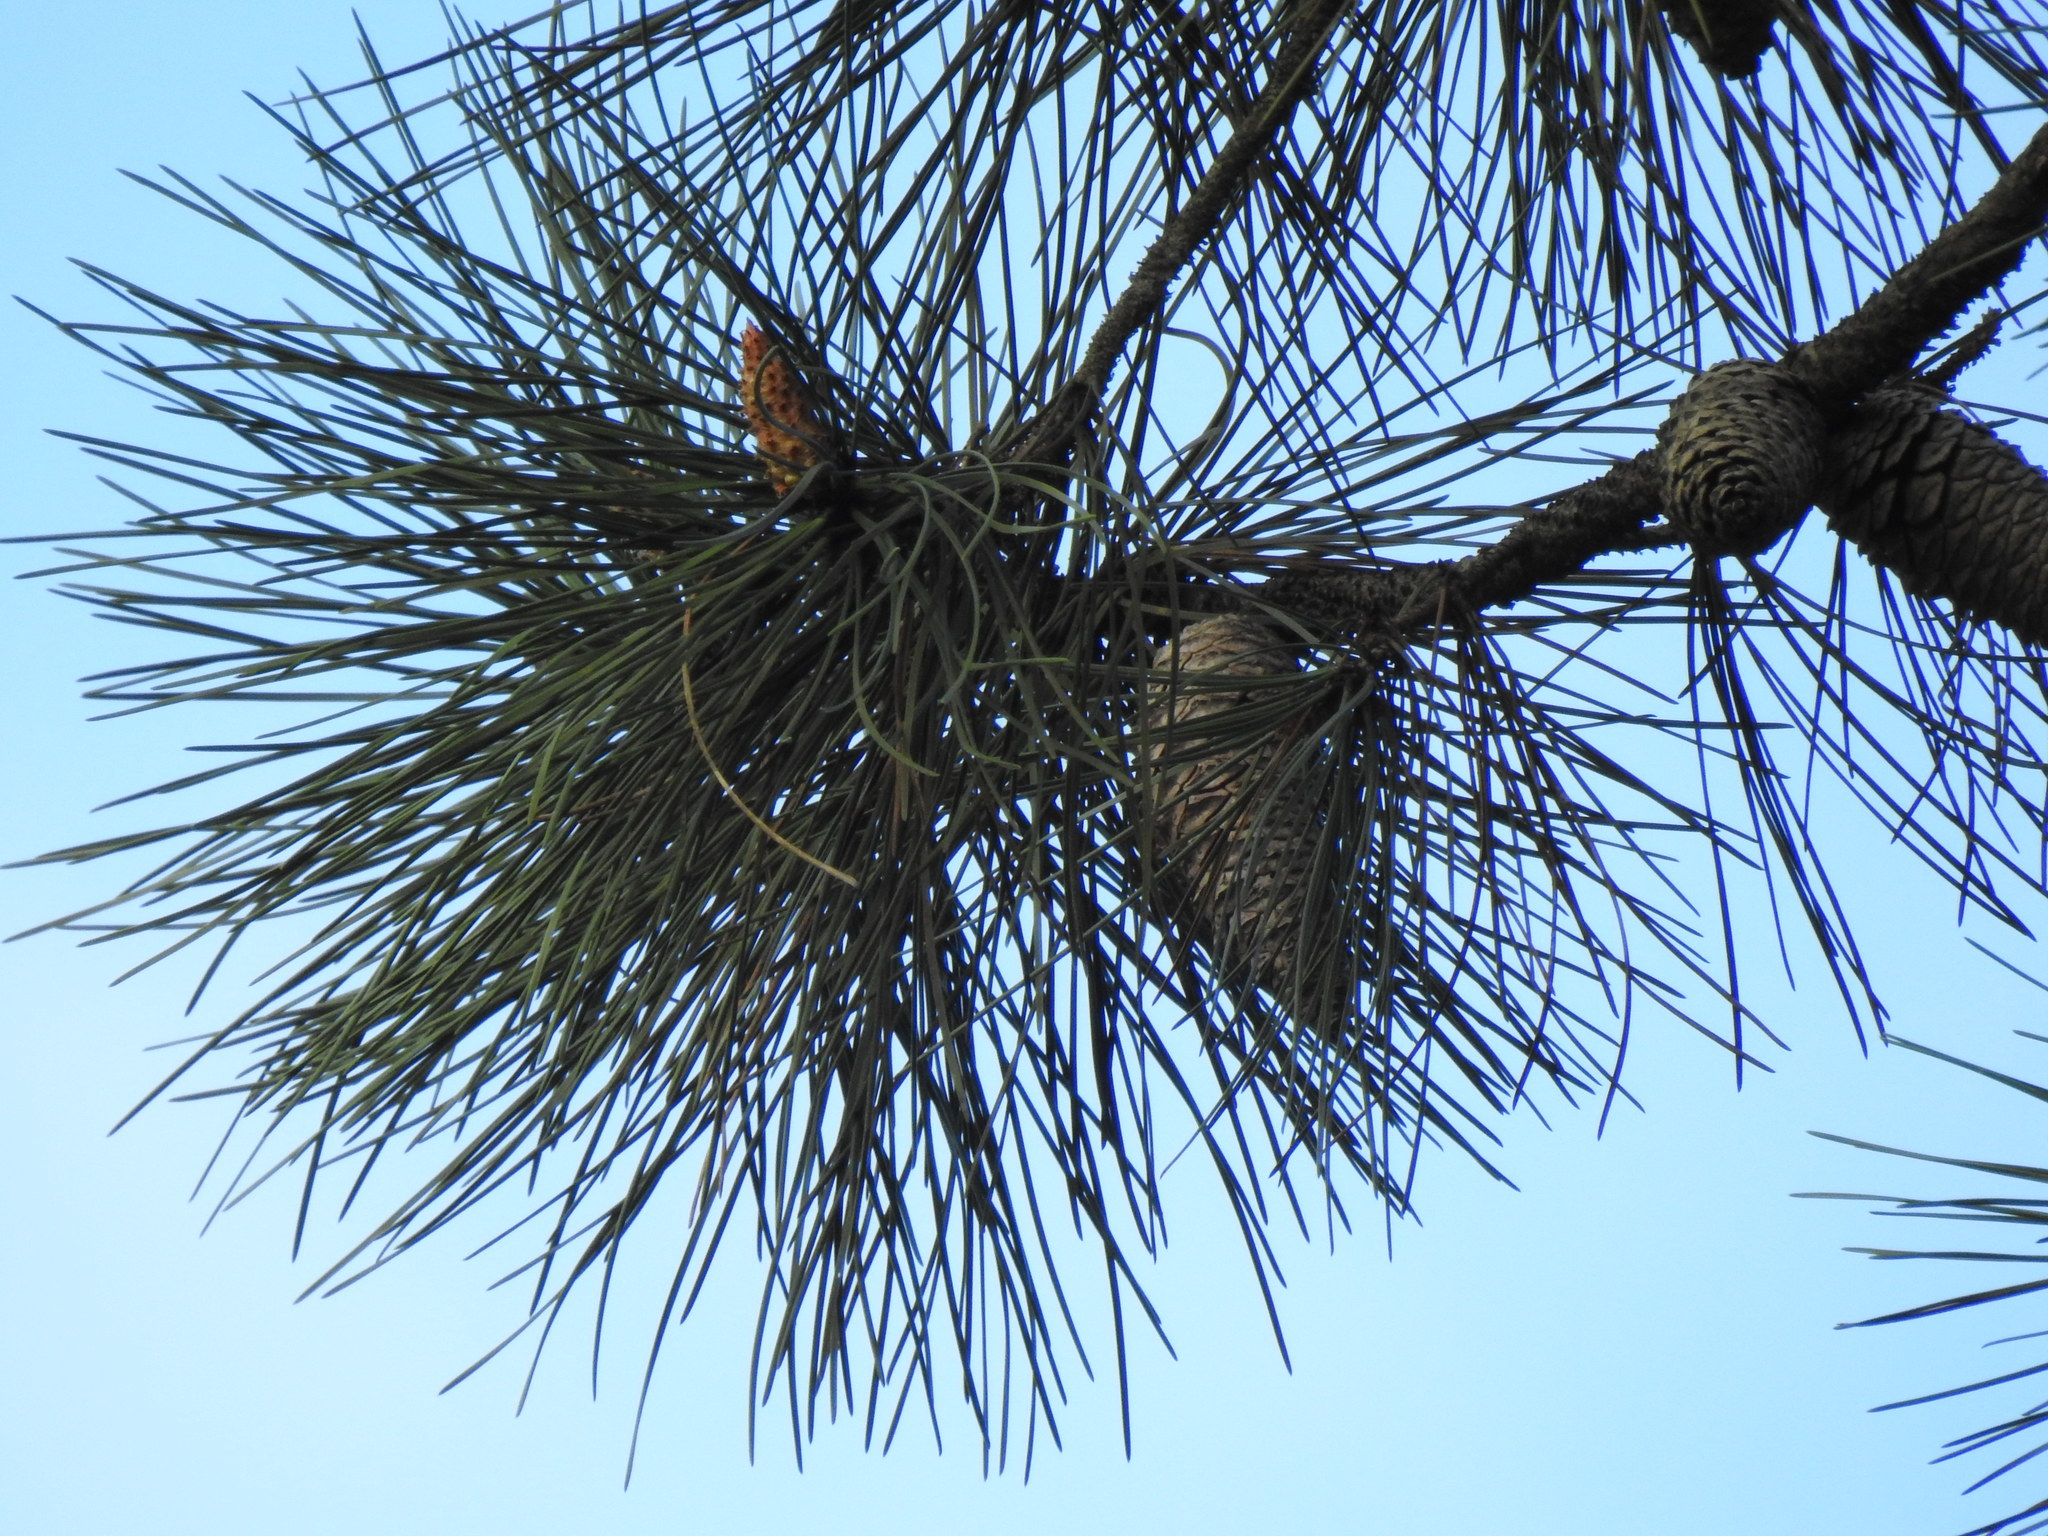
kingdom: Plantae
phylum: Tracheophyta
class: Pinopsida
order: Pinales
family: Pinaceae
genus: Pinus
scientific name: Pinus pinaster
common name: Maritime pine
